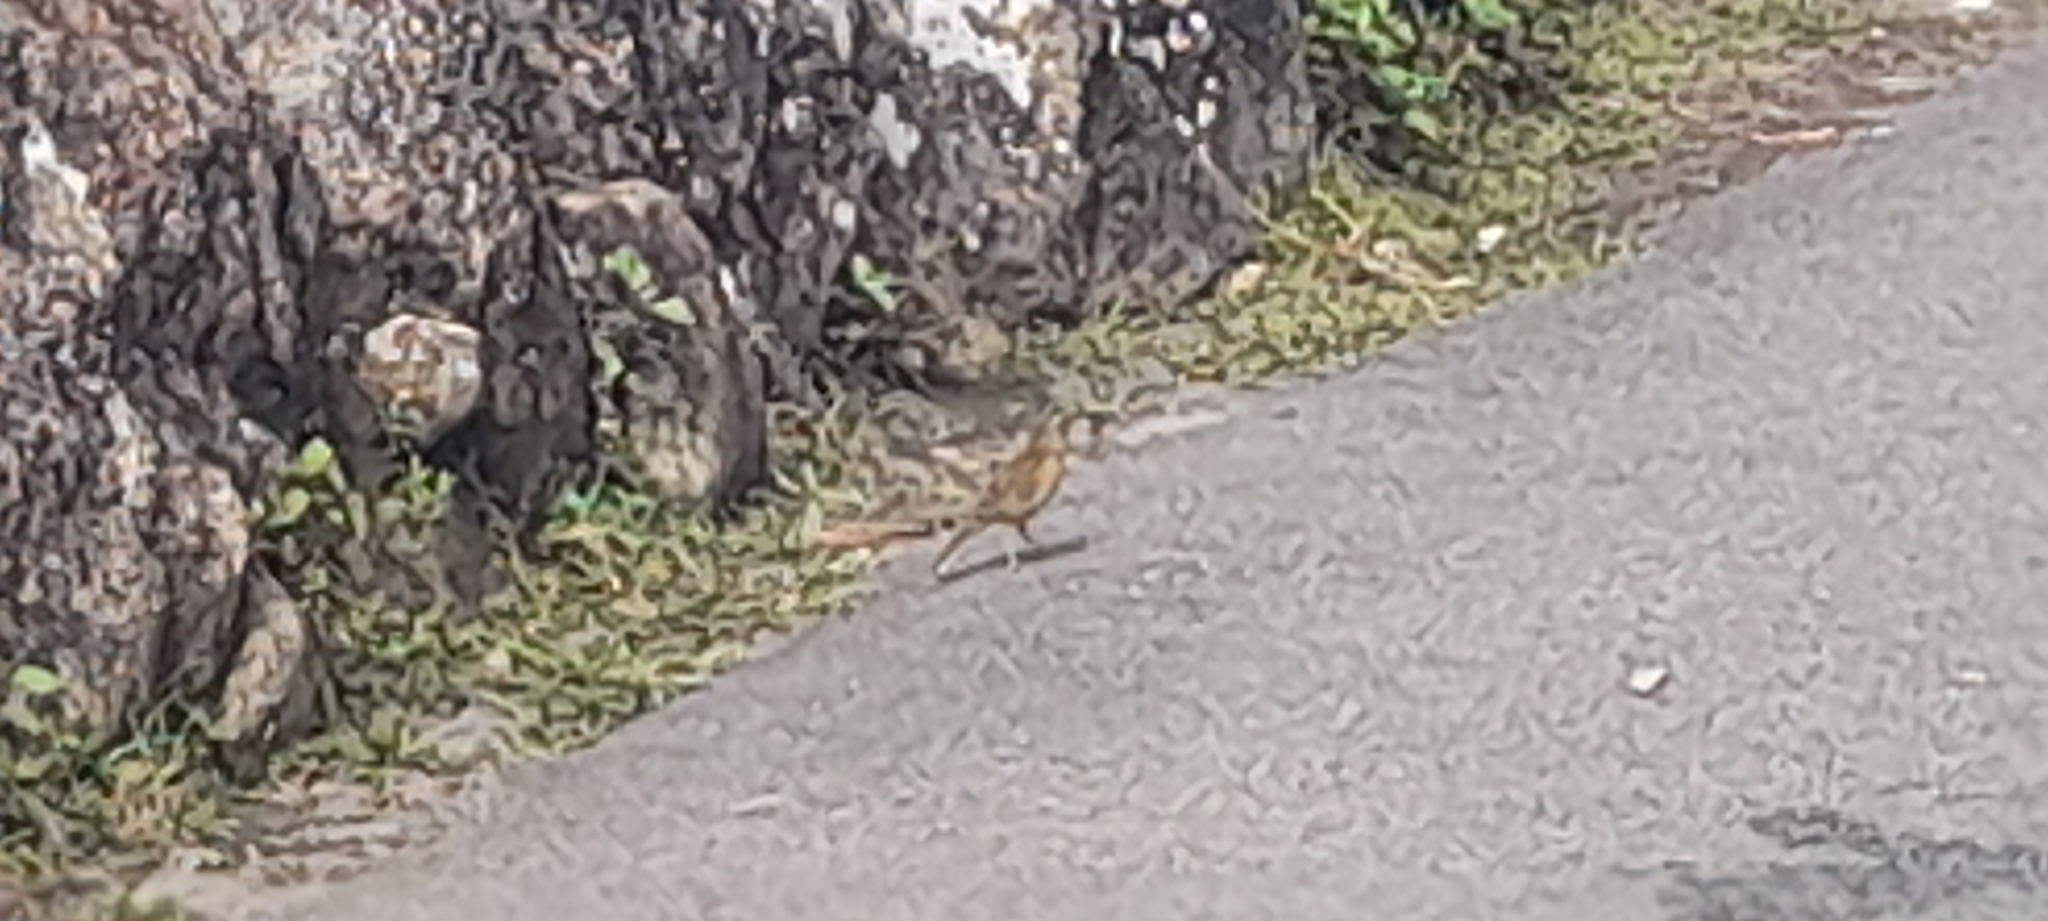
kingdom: Animalia
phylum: Chordata
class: Aves
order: Passeriformes
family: Motacillidae
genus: Anthus
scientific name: Anthus nilghiriensis
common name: Nilgiri pipit
